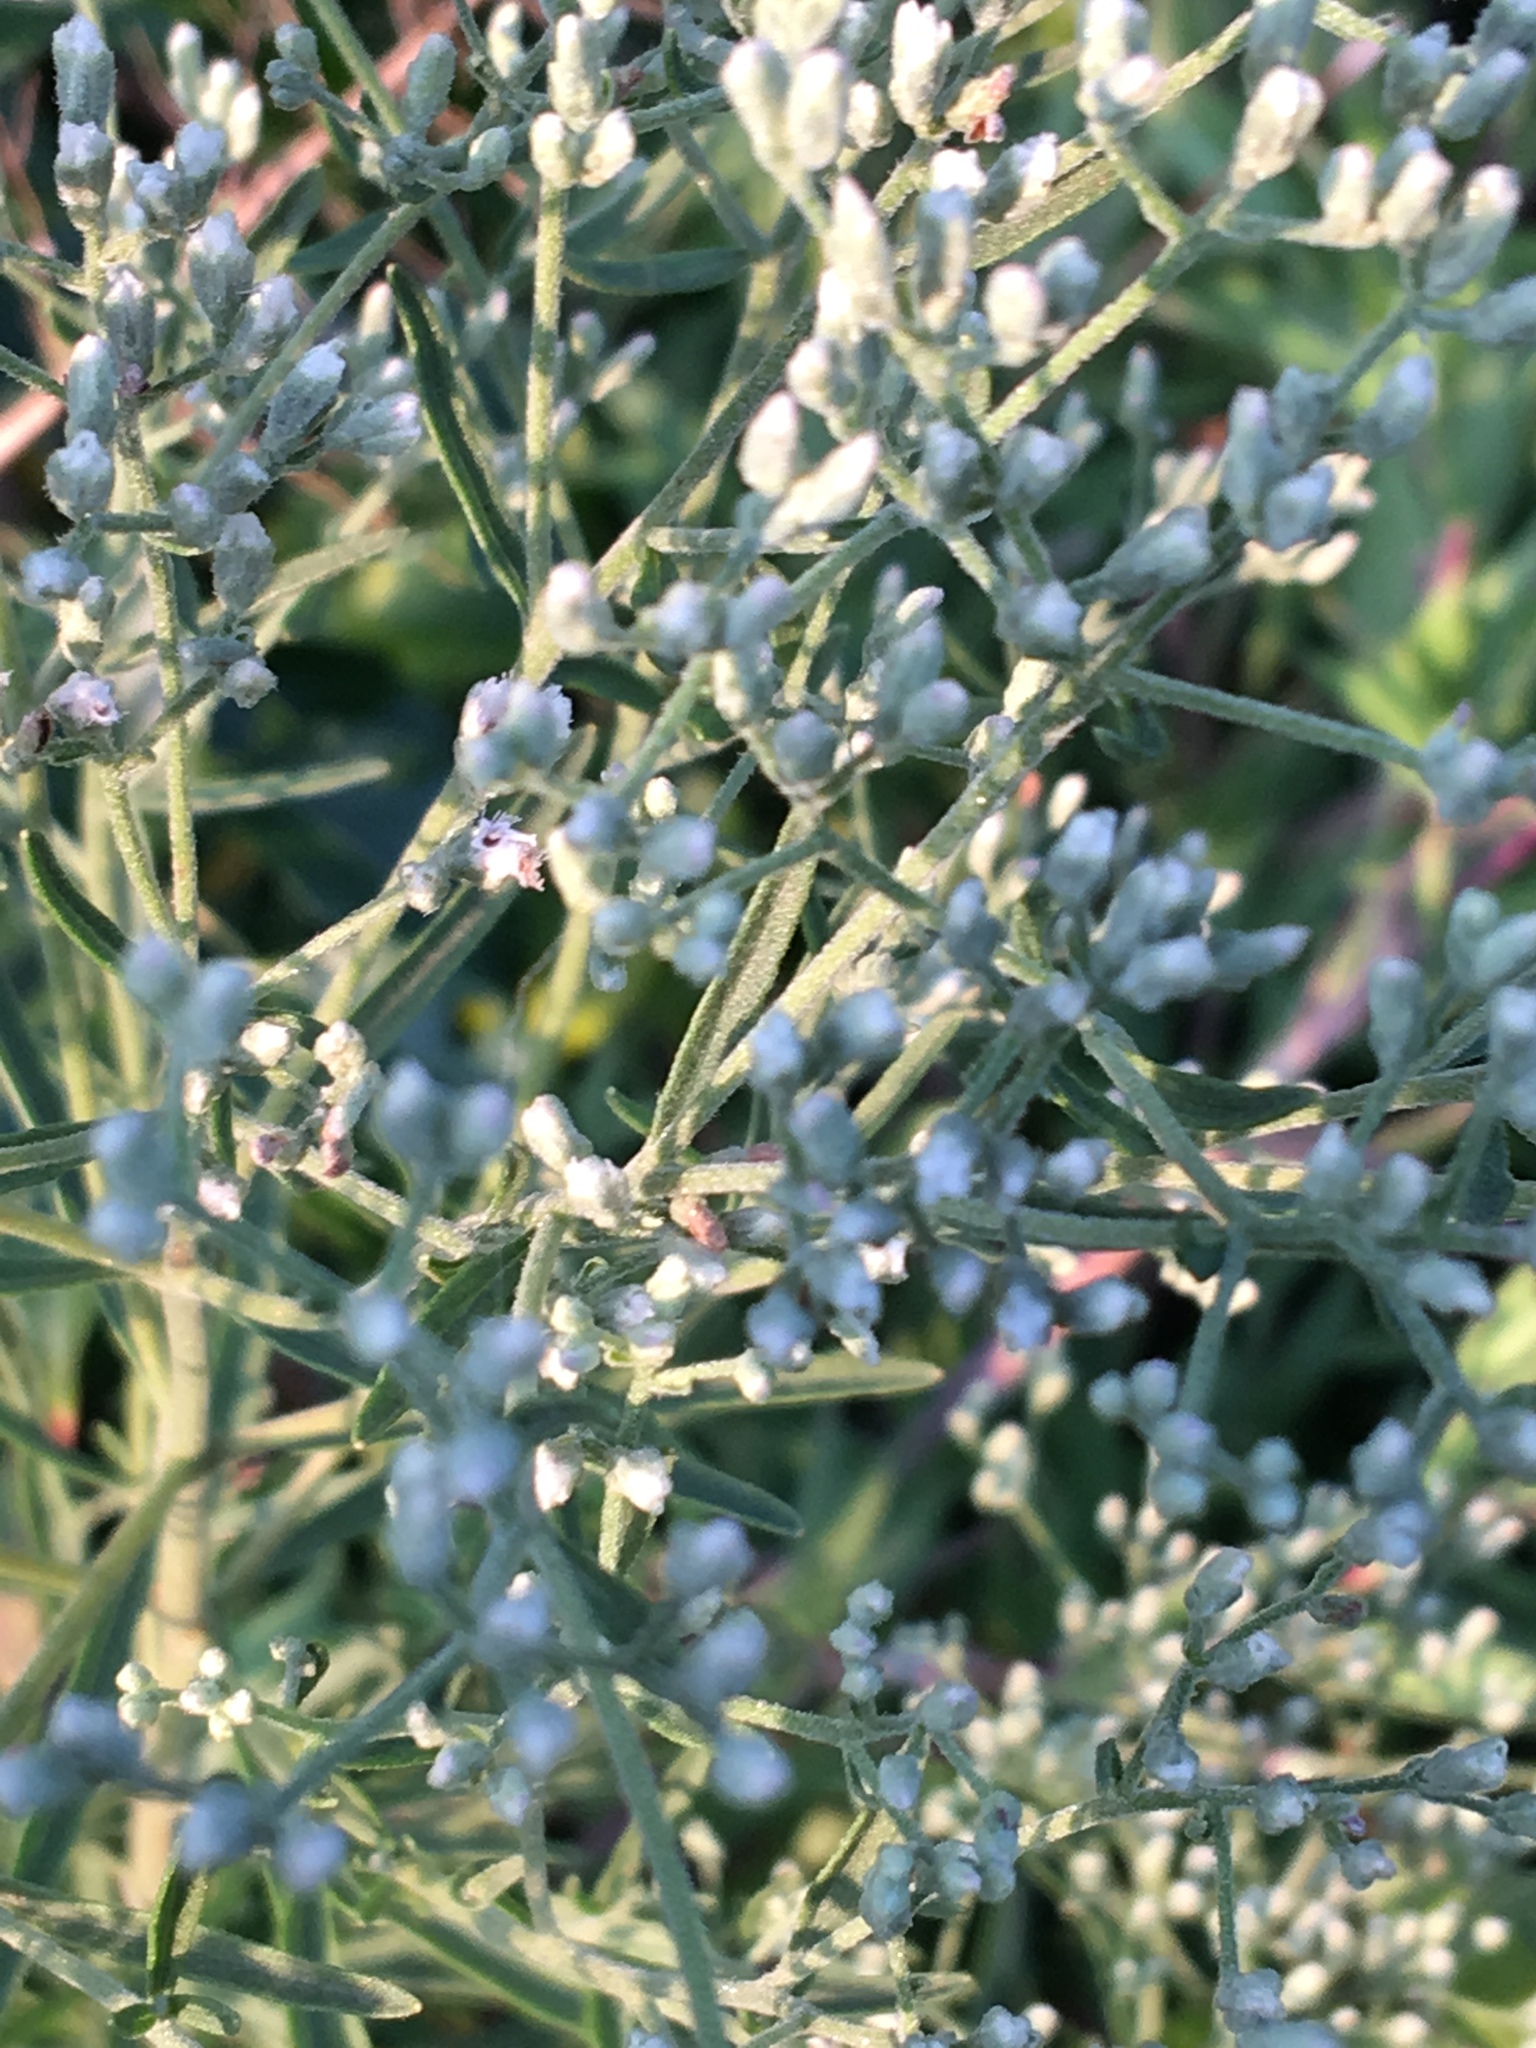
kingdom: Plantae
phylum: Tracheophyta
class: Magnoliopsida
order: Asterales
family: Asteraceae
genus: Eupatorium
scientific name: Eupatorium hyssopifolium
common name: Hyssop-leaf thoroughwort
